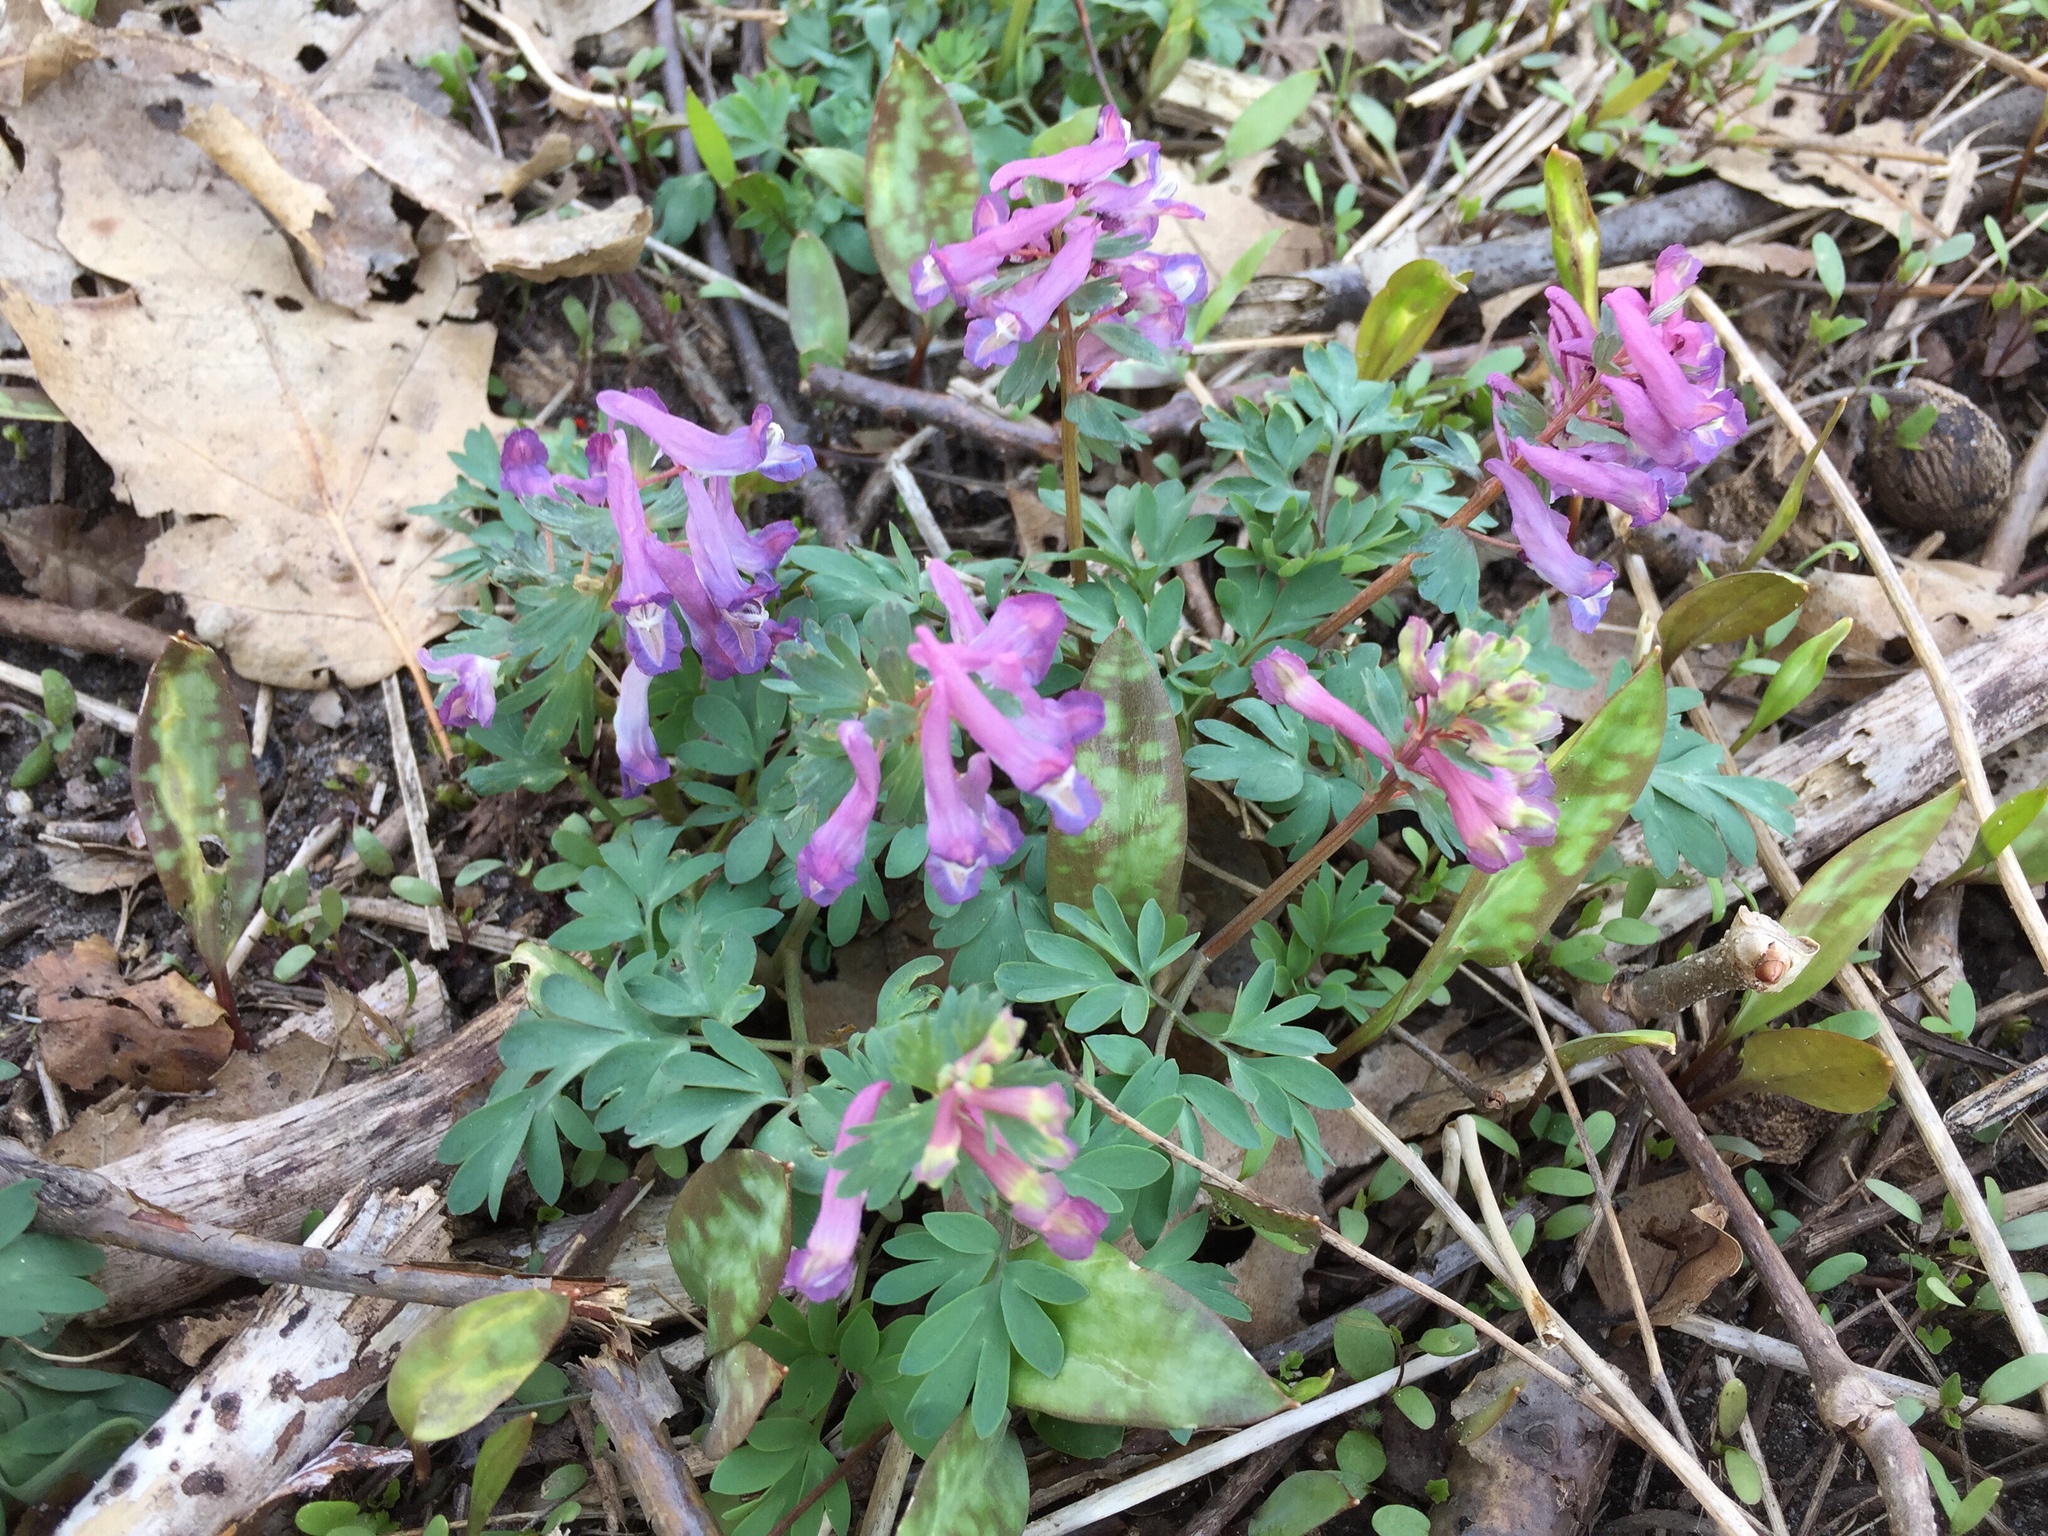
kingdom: Plantae
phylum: Tracheophyta
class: Magnoliopsida
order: Ranunculales
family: Papaveraceae
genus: Corydalis
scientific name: Corydalis solida
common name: Bird-in-a-bush
